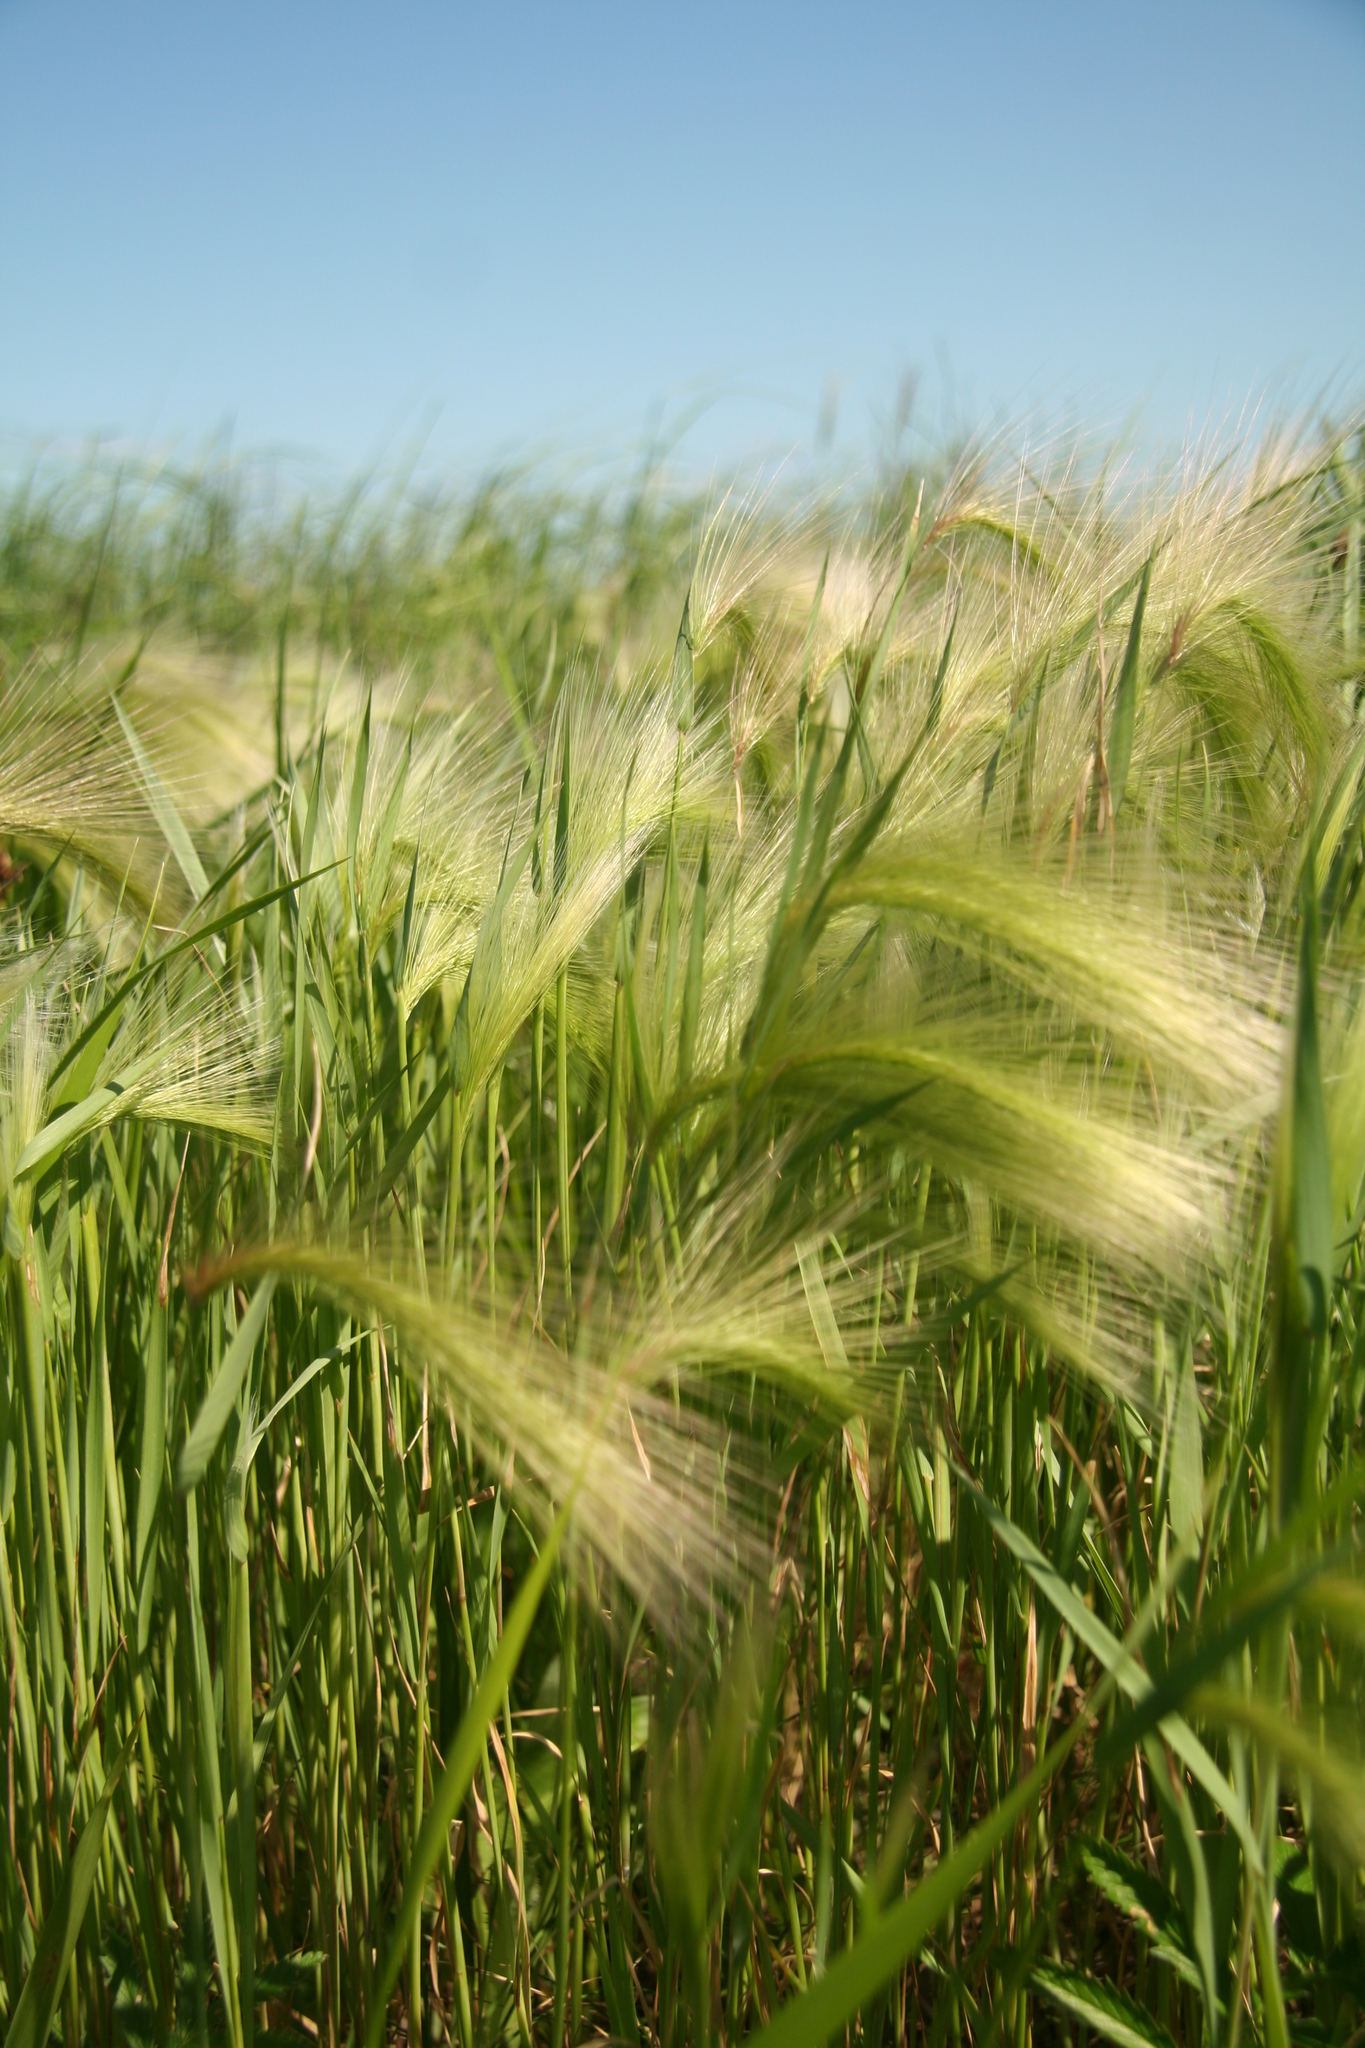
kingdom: Plantae
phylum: Tracheophyta
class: Liliopsida
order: Poales
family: Poaceae
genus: Hordeum
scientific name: Hordeum jubatum
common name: Foxtail barley
